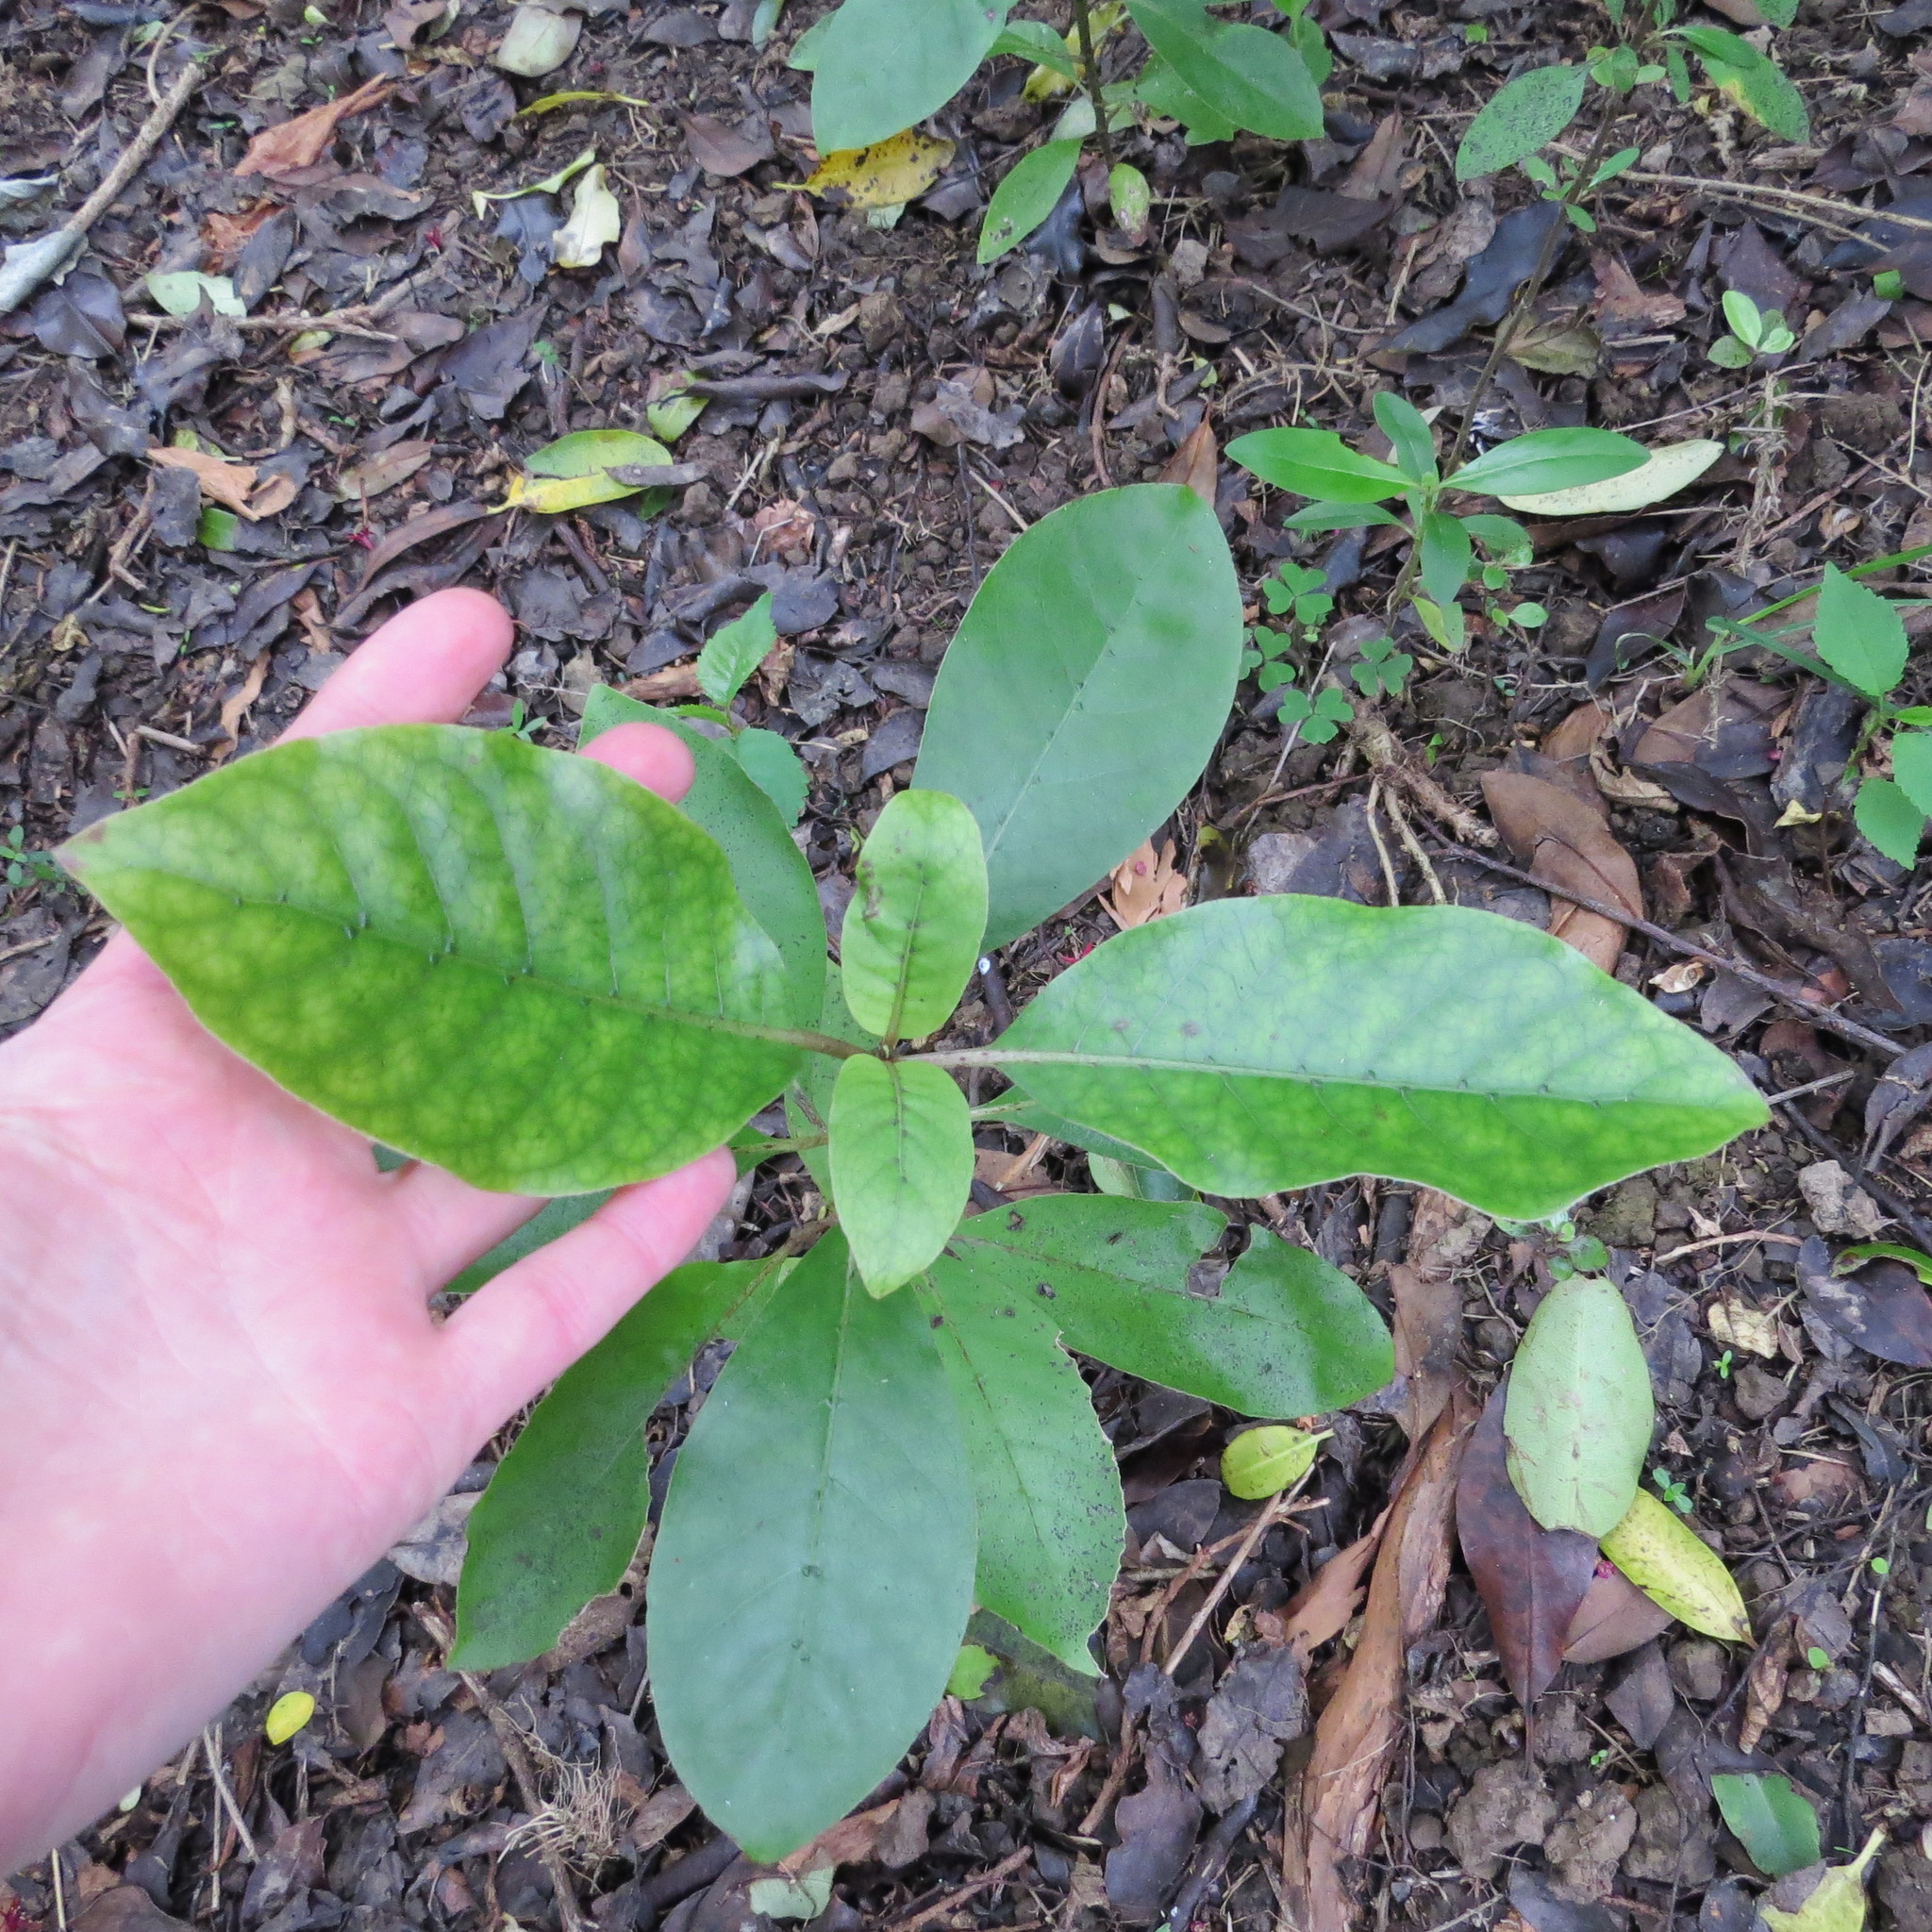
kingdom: Plantae
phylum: Tracheophyta
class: Magnoliopsida
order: Gentianales
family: Rubiaceae
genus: Coprosma
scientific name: Coprosma autumnalis
